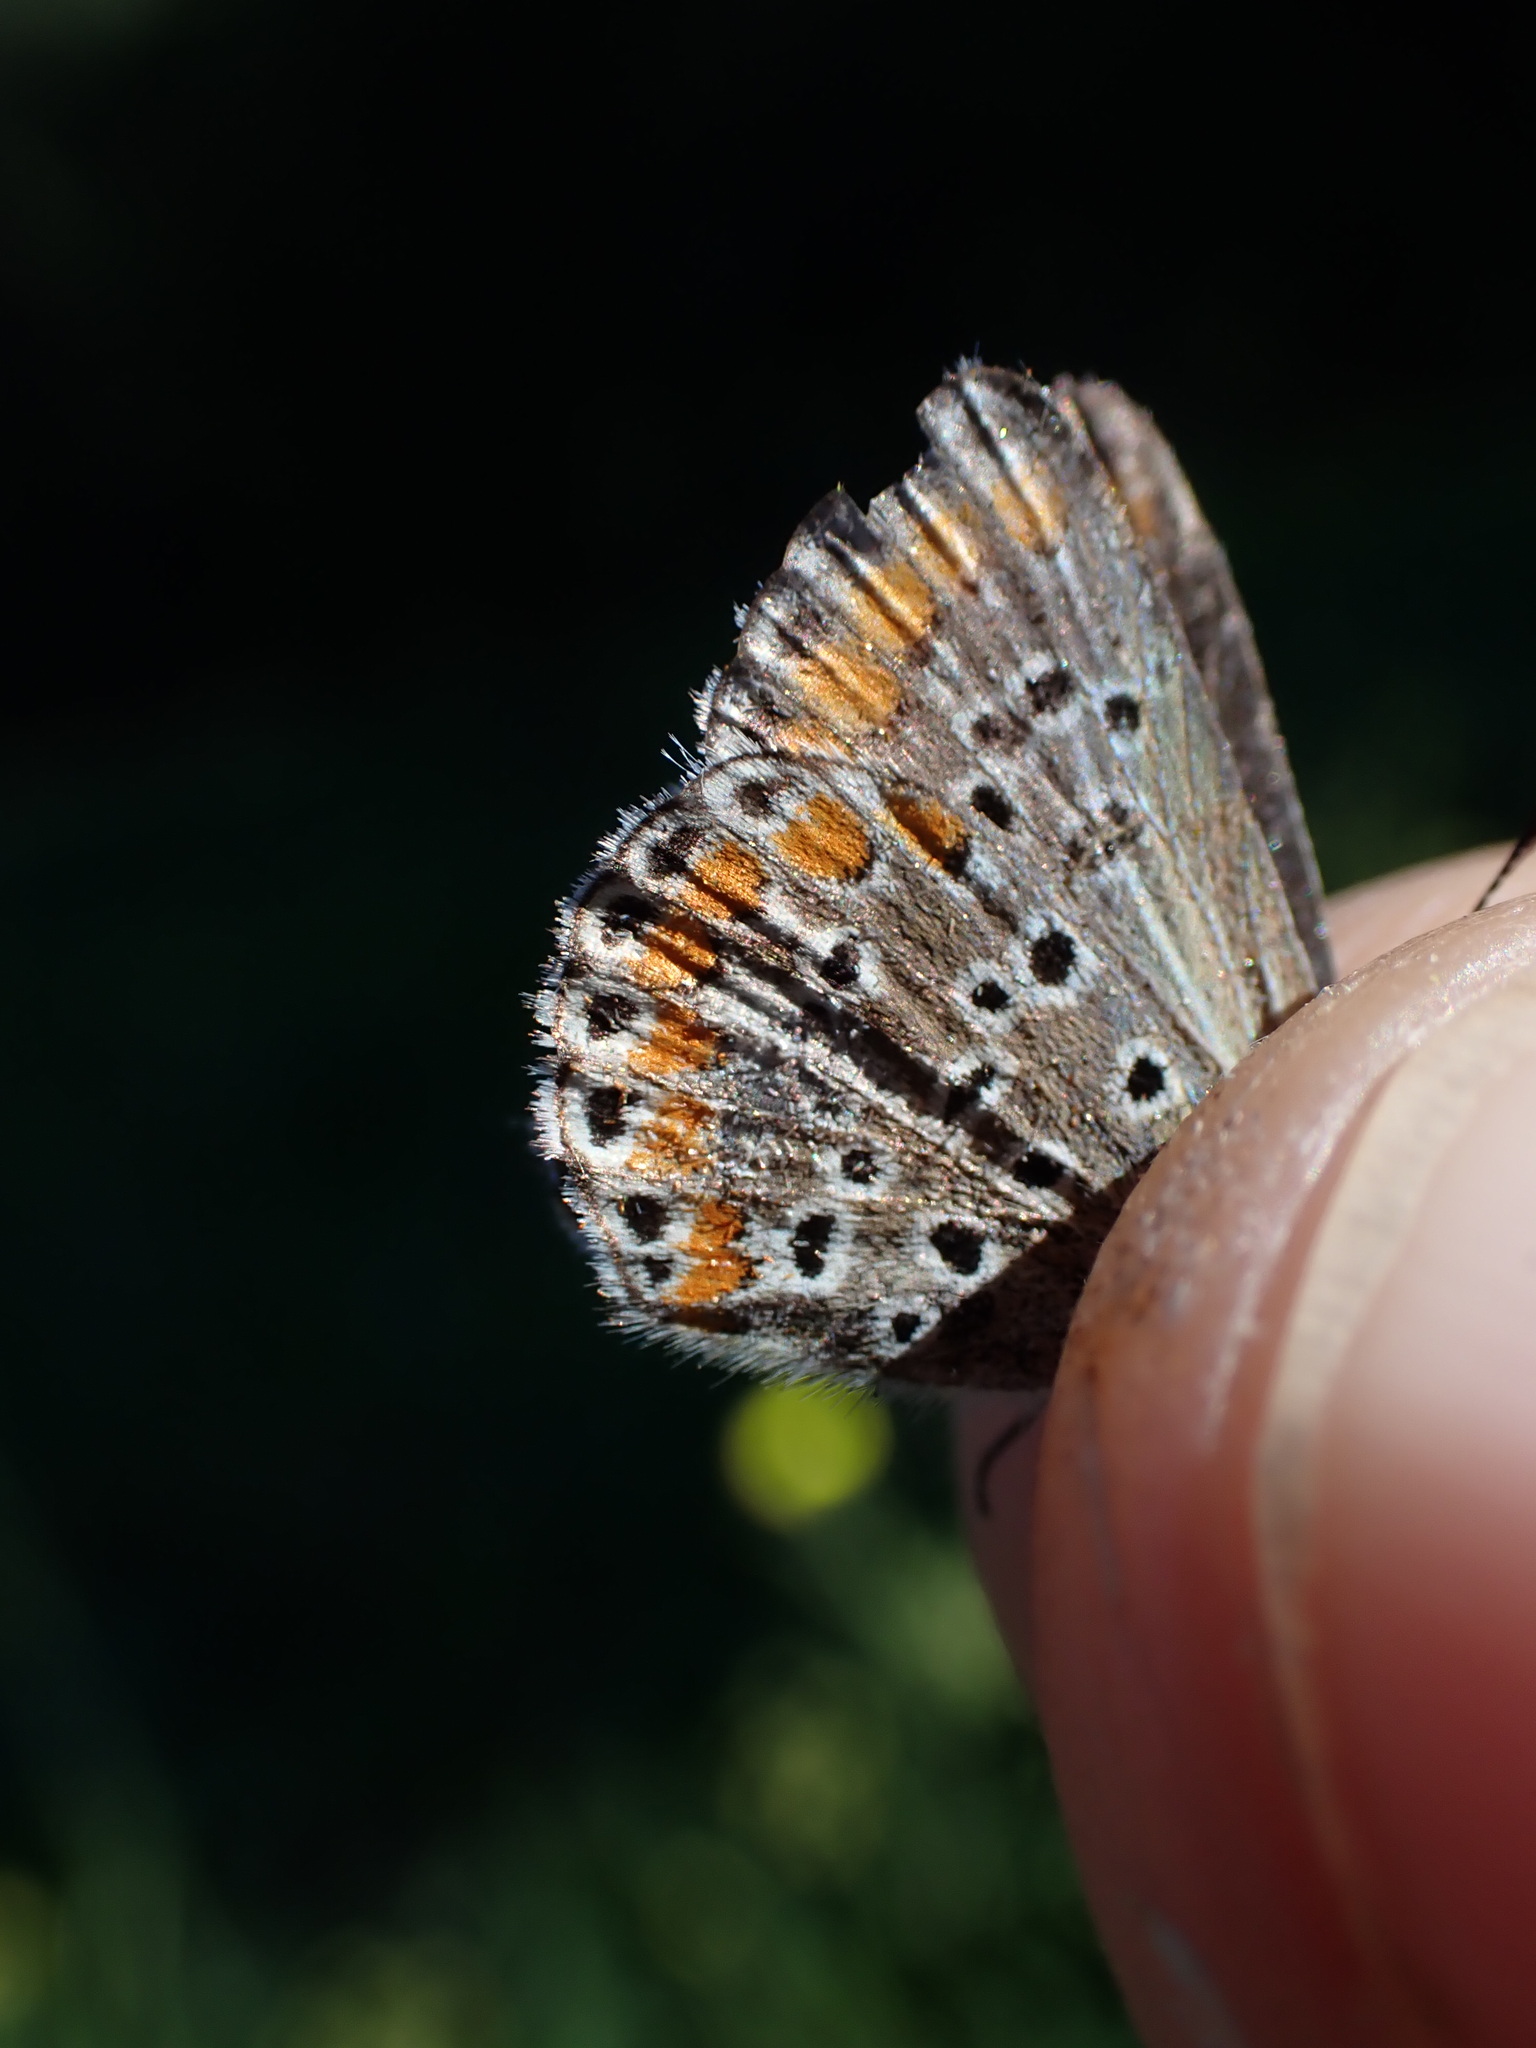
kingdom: Animalia
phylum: Arthropoda
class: Insecta
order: Lepidoptera
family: Lycaenidae
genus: Aricia
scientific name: Aricia agestis
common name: Brown argus
